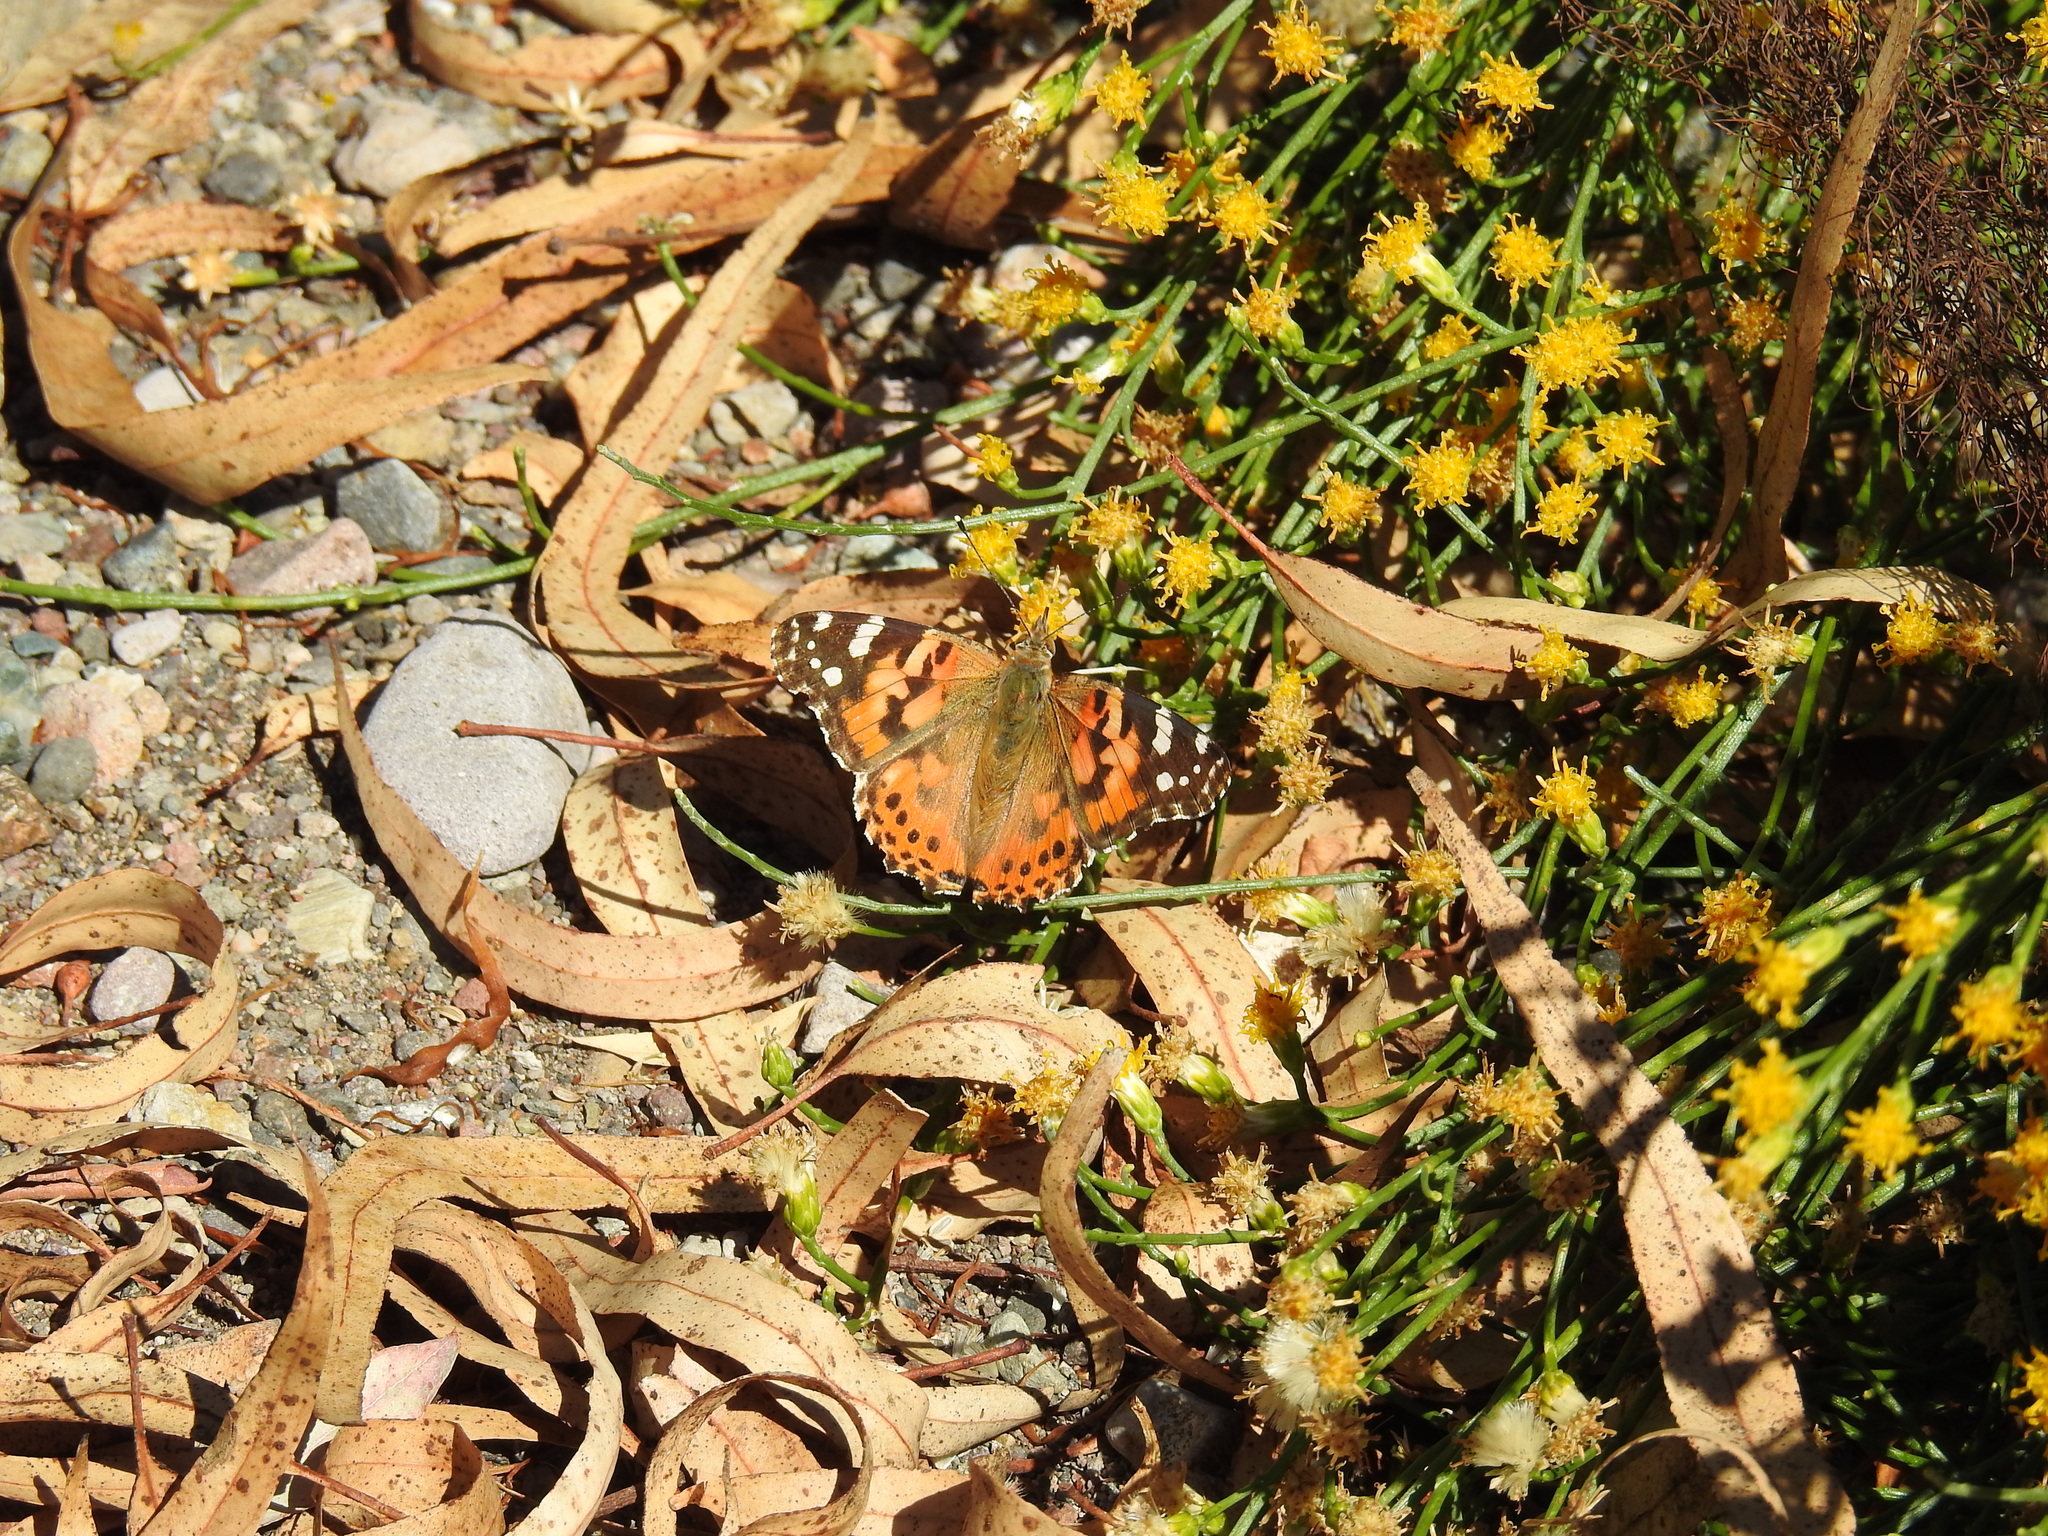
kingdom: Animalia
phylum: Arthropoda
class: Insecta
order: Lepidoptera
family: Nymphalidae
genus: Vanessa
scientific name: Vanessa cardui
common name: Painted lady
